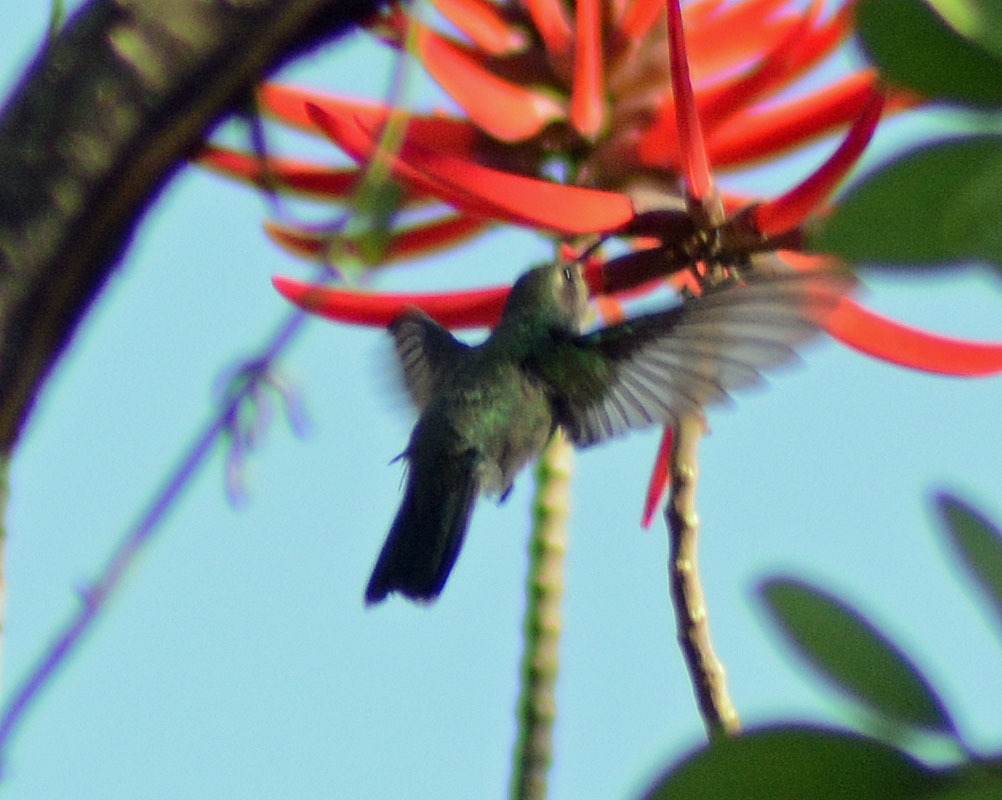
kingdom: Animalia
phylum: Chordata
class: Aves
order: Apodiformes
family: Trochilidae
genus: Cynanthus
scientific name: Cynanthus latirostris
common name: Broad-billed hummingbird
